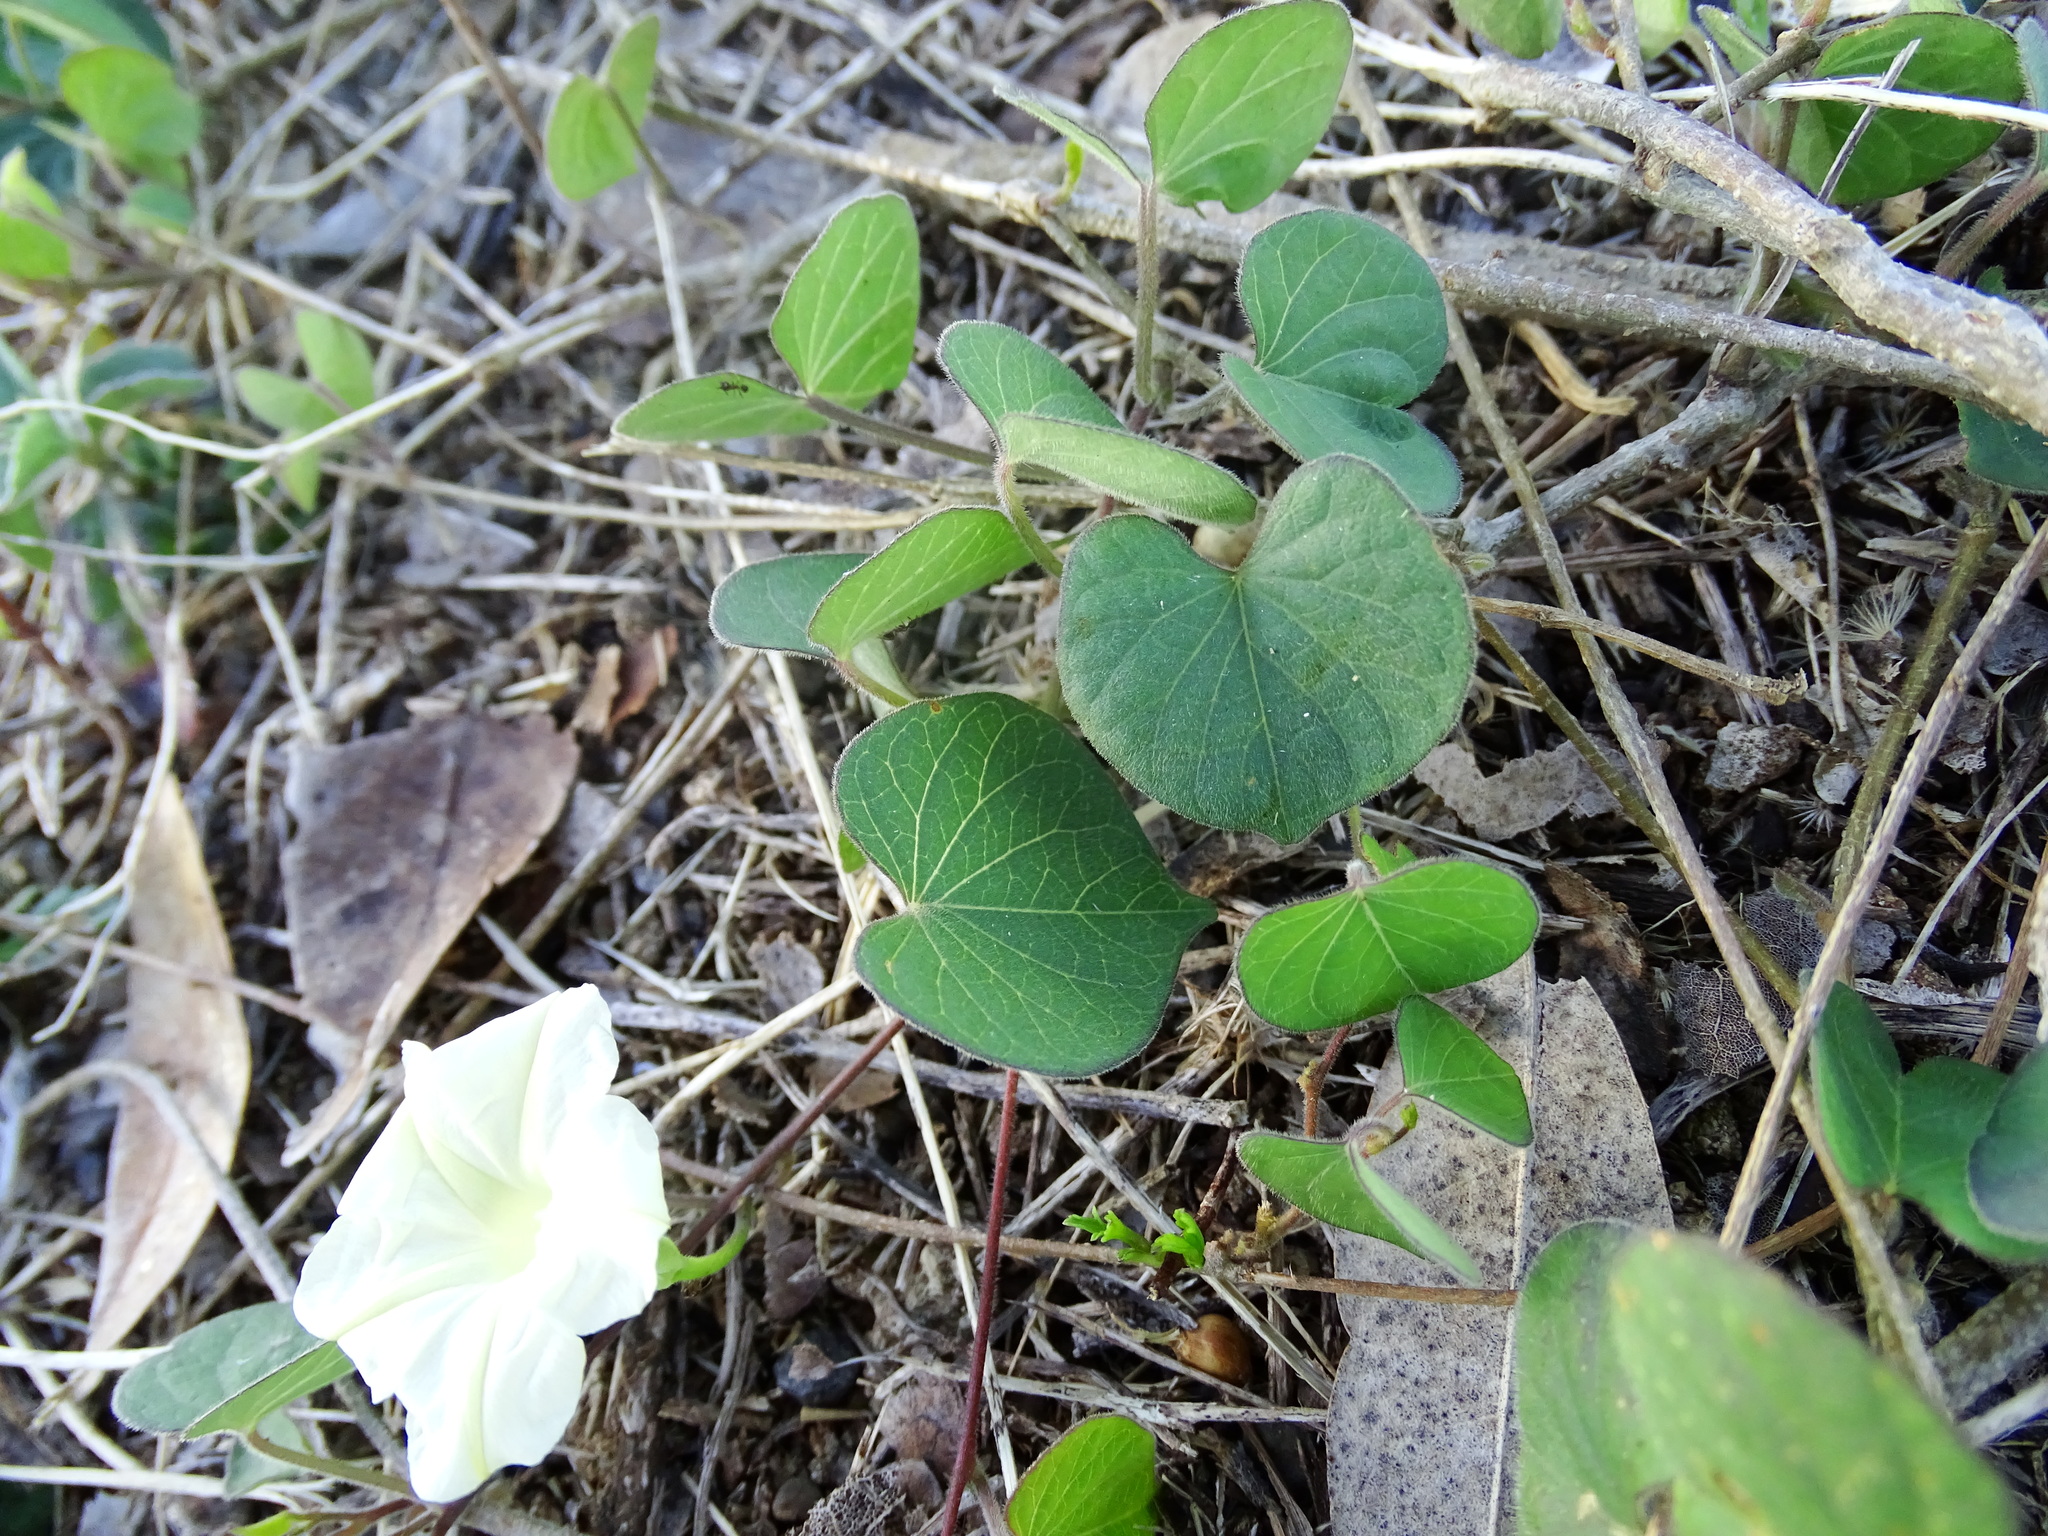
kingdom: Plantae
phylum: Tracheophyta
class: Magnoliopsida
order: Solanales
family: Convolvulaceae
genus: Ipomoea
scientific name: Ipomoea obscura
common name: Obscure morning-glory
